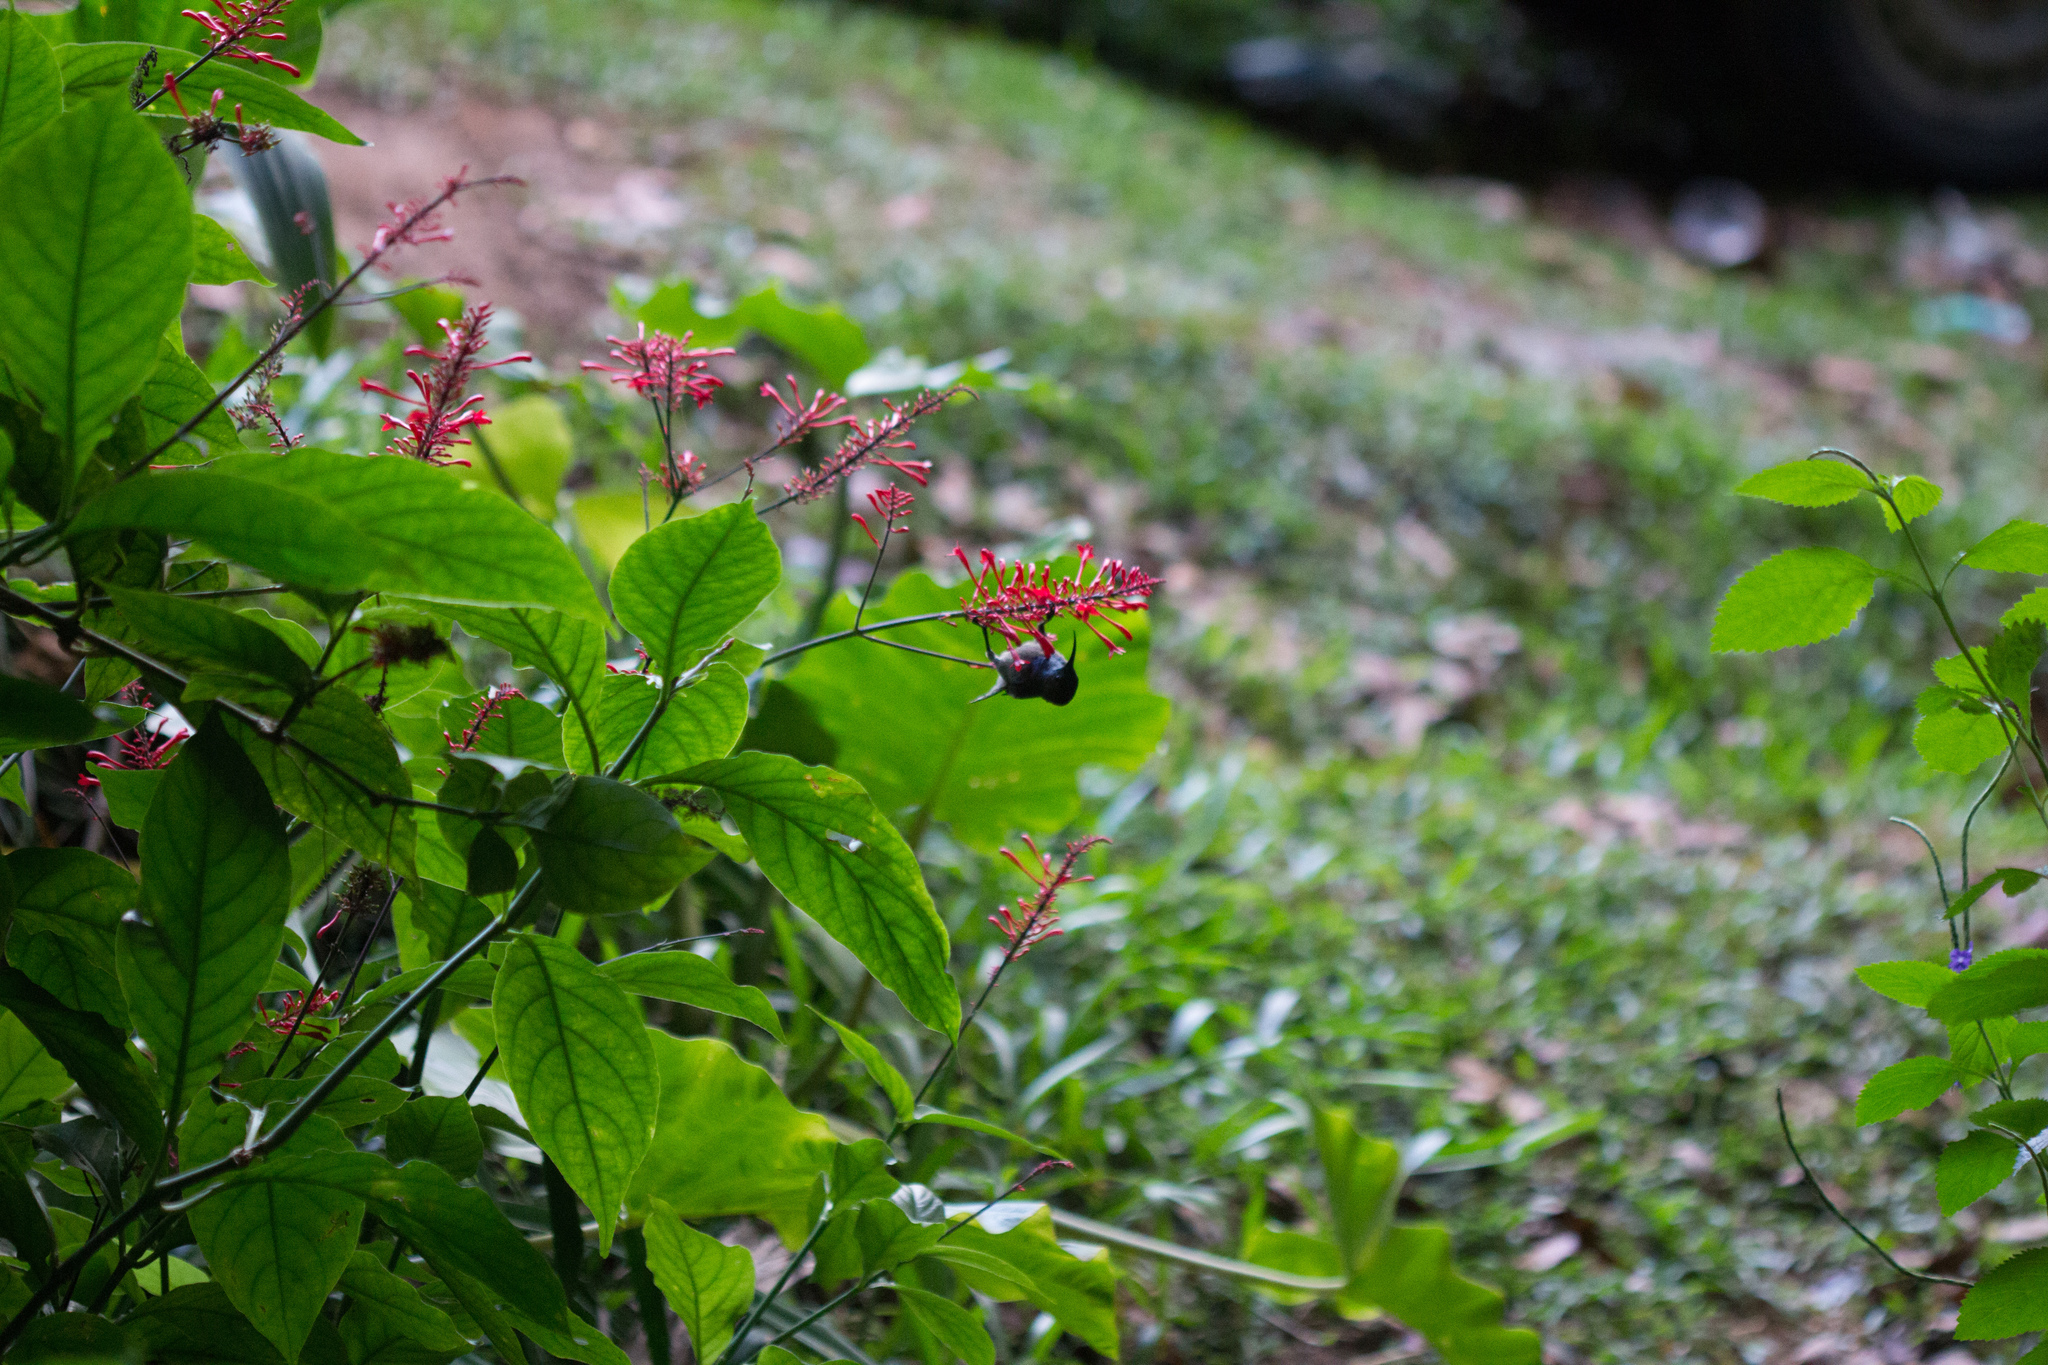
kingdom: Animalia
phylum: Chordata
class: Aves
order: Passeriformes
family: Nectariniidae
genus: Cinnyris
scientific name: Cinnyris dussumieri
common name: Seychelles sunbird
